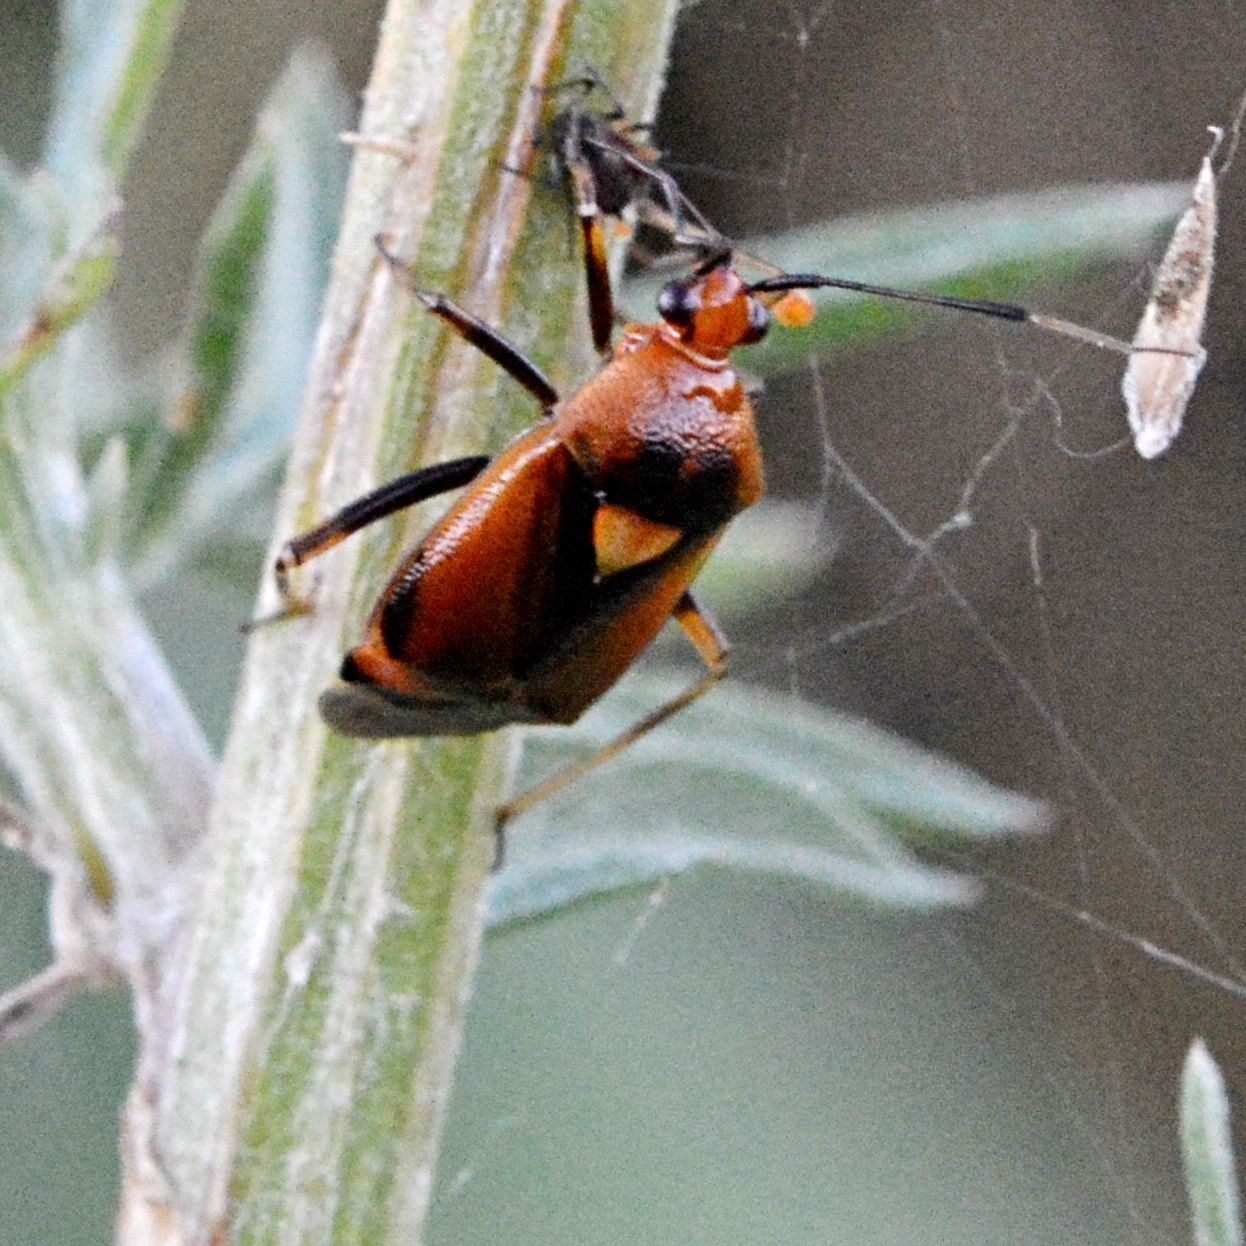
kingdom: Animalia
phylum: Arthropoda
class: Insecta
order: Hemiptera
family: Miridae
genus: Deraeocoris
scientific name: Deraeocoris ruber
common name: Plant bug
